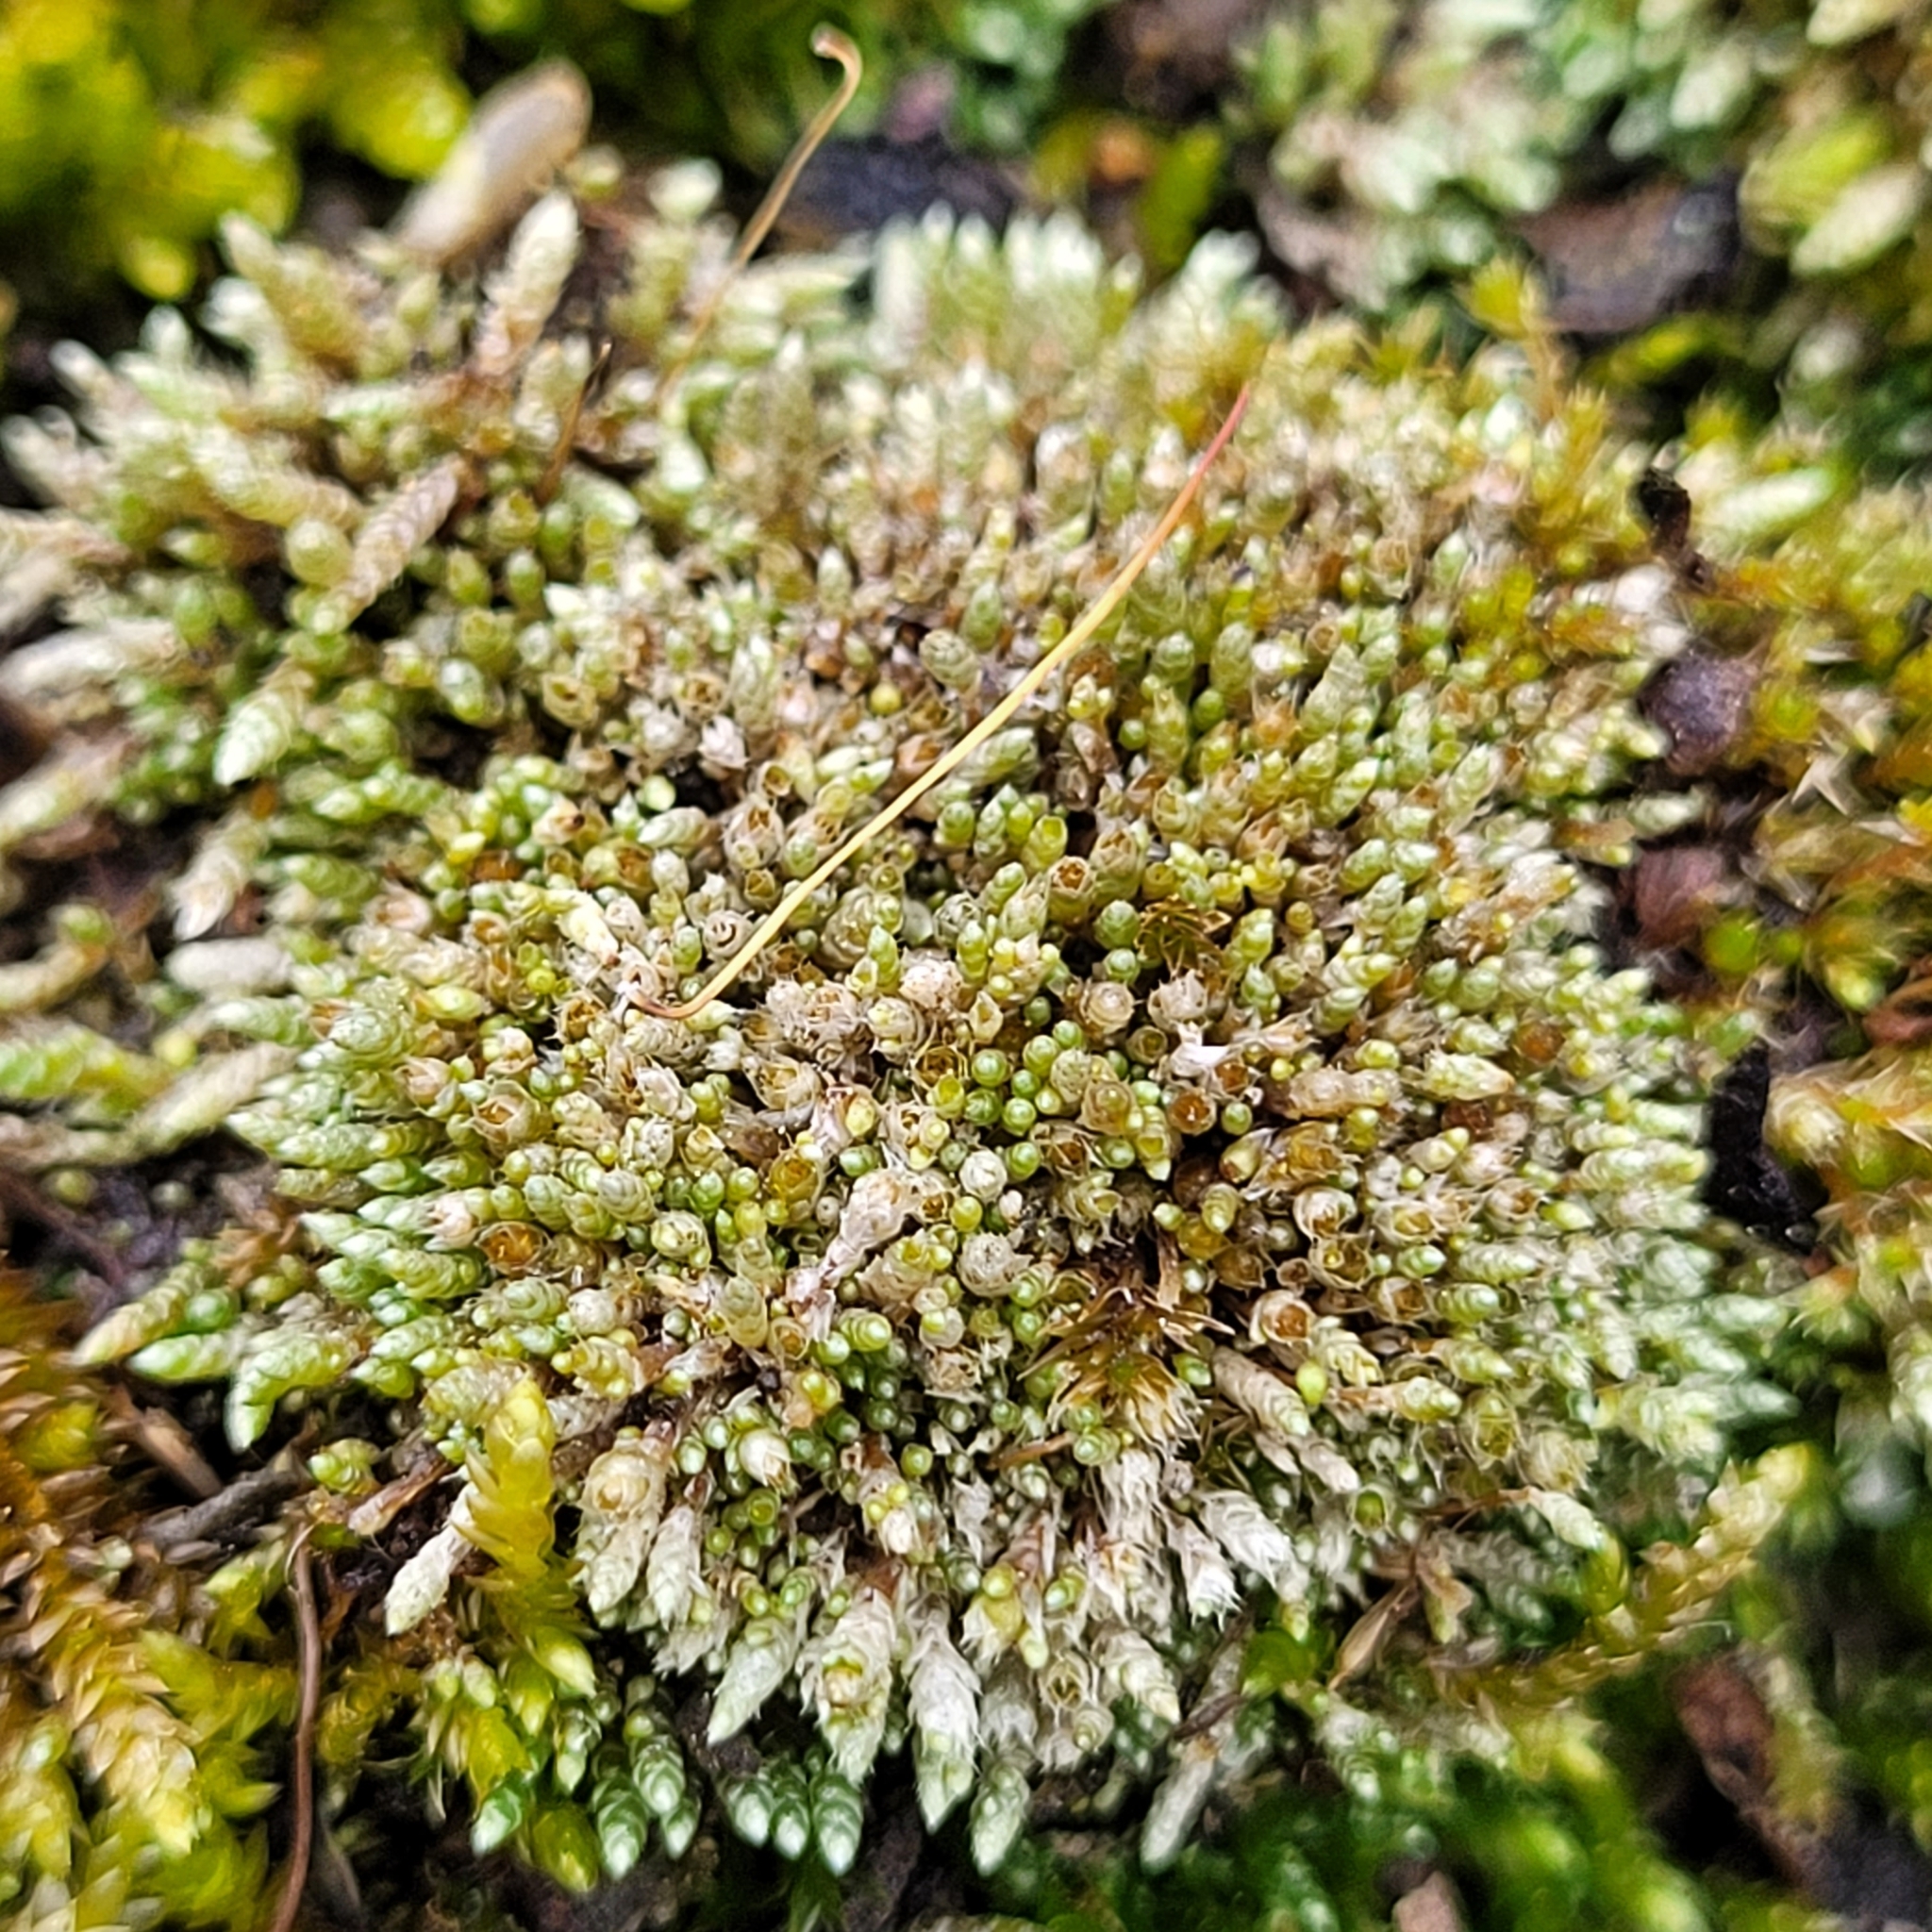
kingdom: Plantae
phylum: Bryophyta
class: Bryopsida
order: Bryales
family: Bryaceae
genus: Bryum
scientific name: Bryum argenteum
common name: Silver-moss
